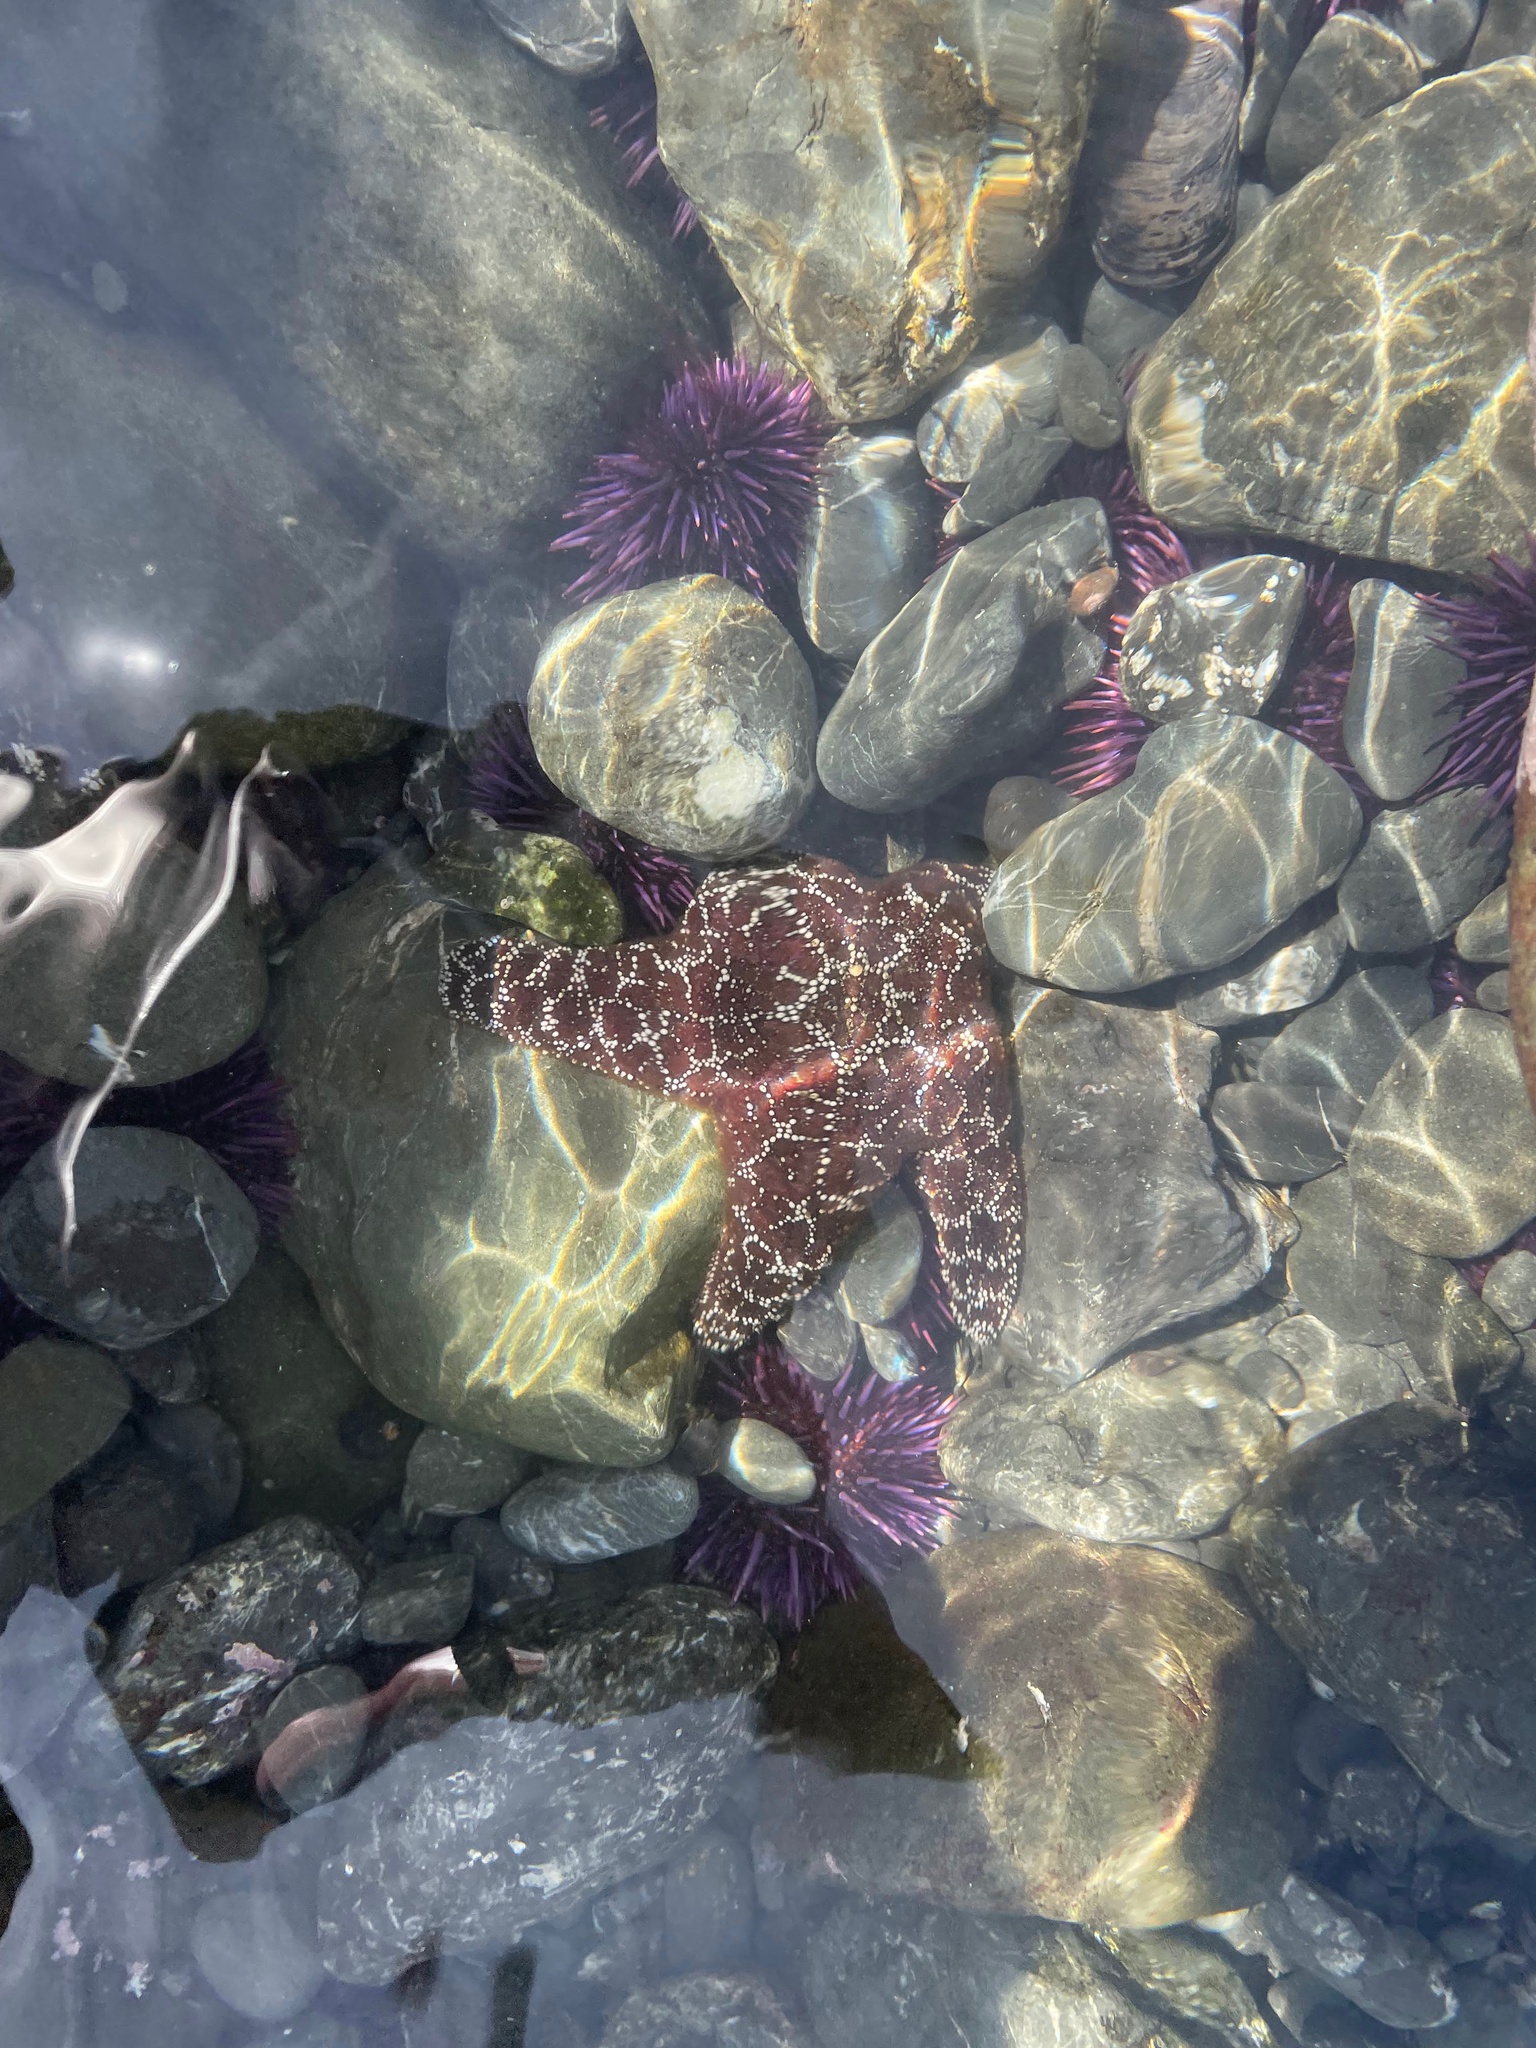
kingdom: Animalia
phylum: Echinodermata
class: Asteroidea
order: Forcipulatida
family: Asteriidae
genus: Pisaster
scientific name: Pisaster ochraceus
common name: Ochre stars
